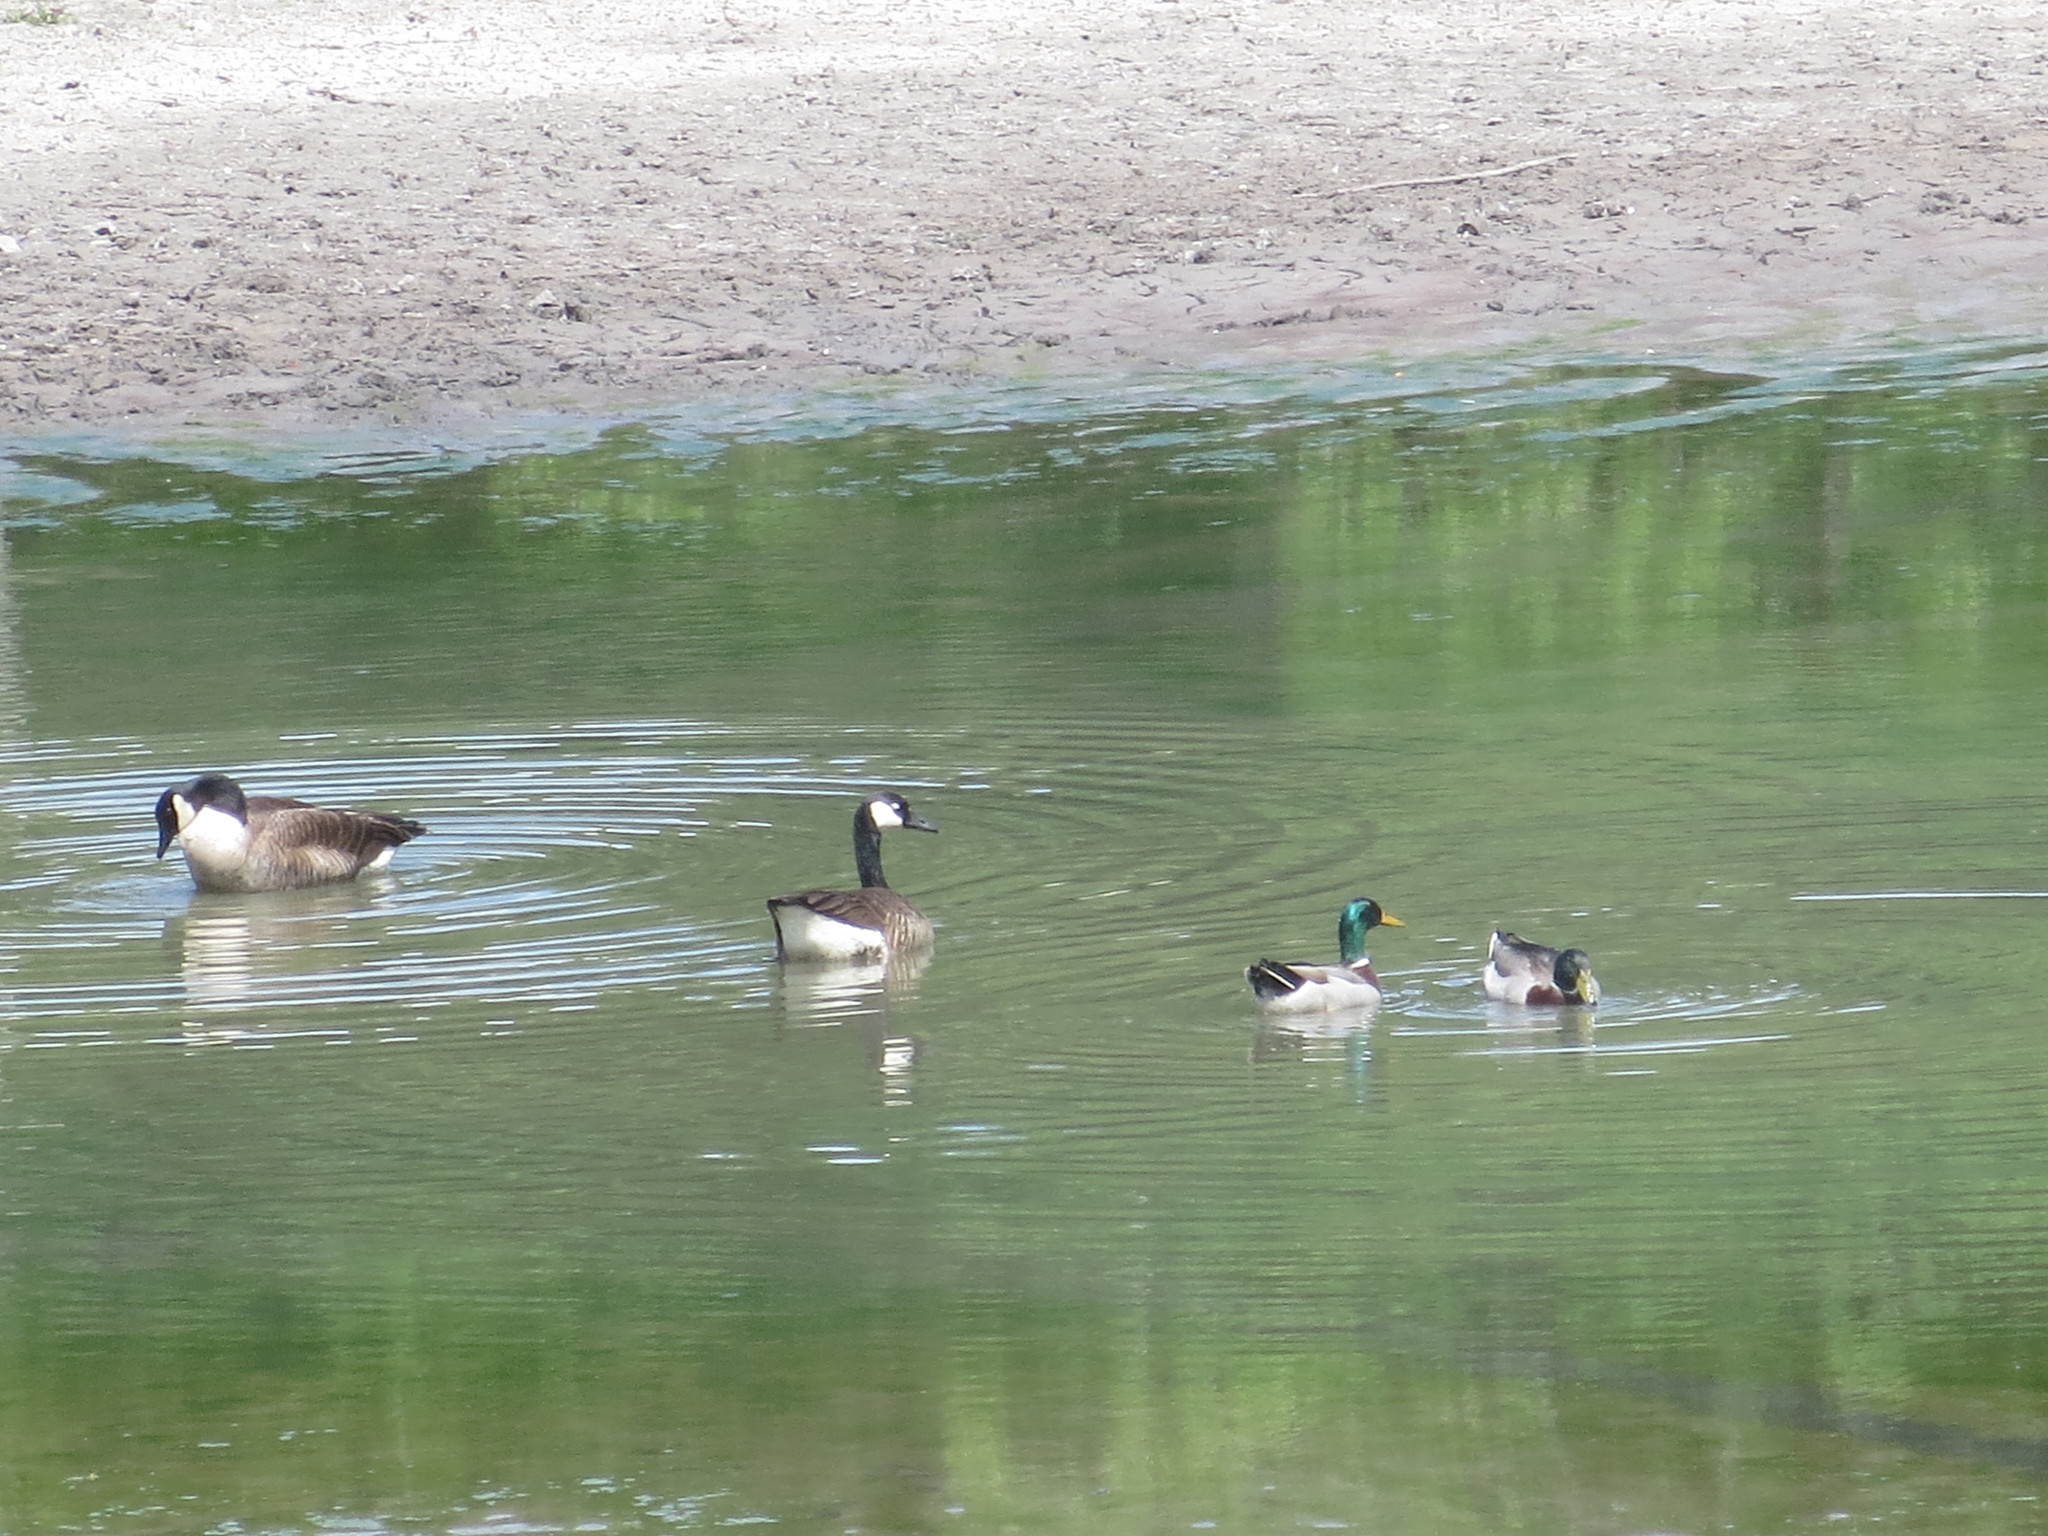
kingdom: Animalia
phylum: Chordata
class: Aves
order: Anseriformes
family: Anatidae
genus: Branta
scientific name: Branta canadensis
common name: Canada goose
